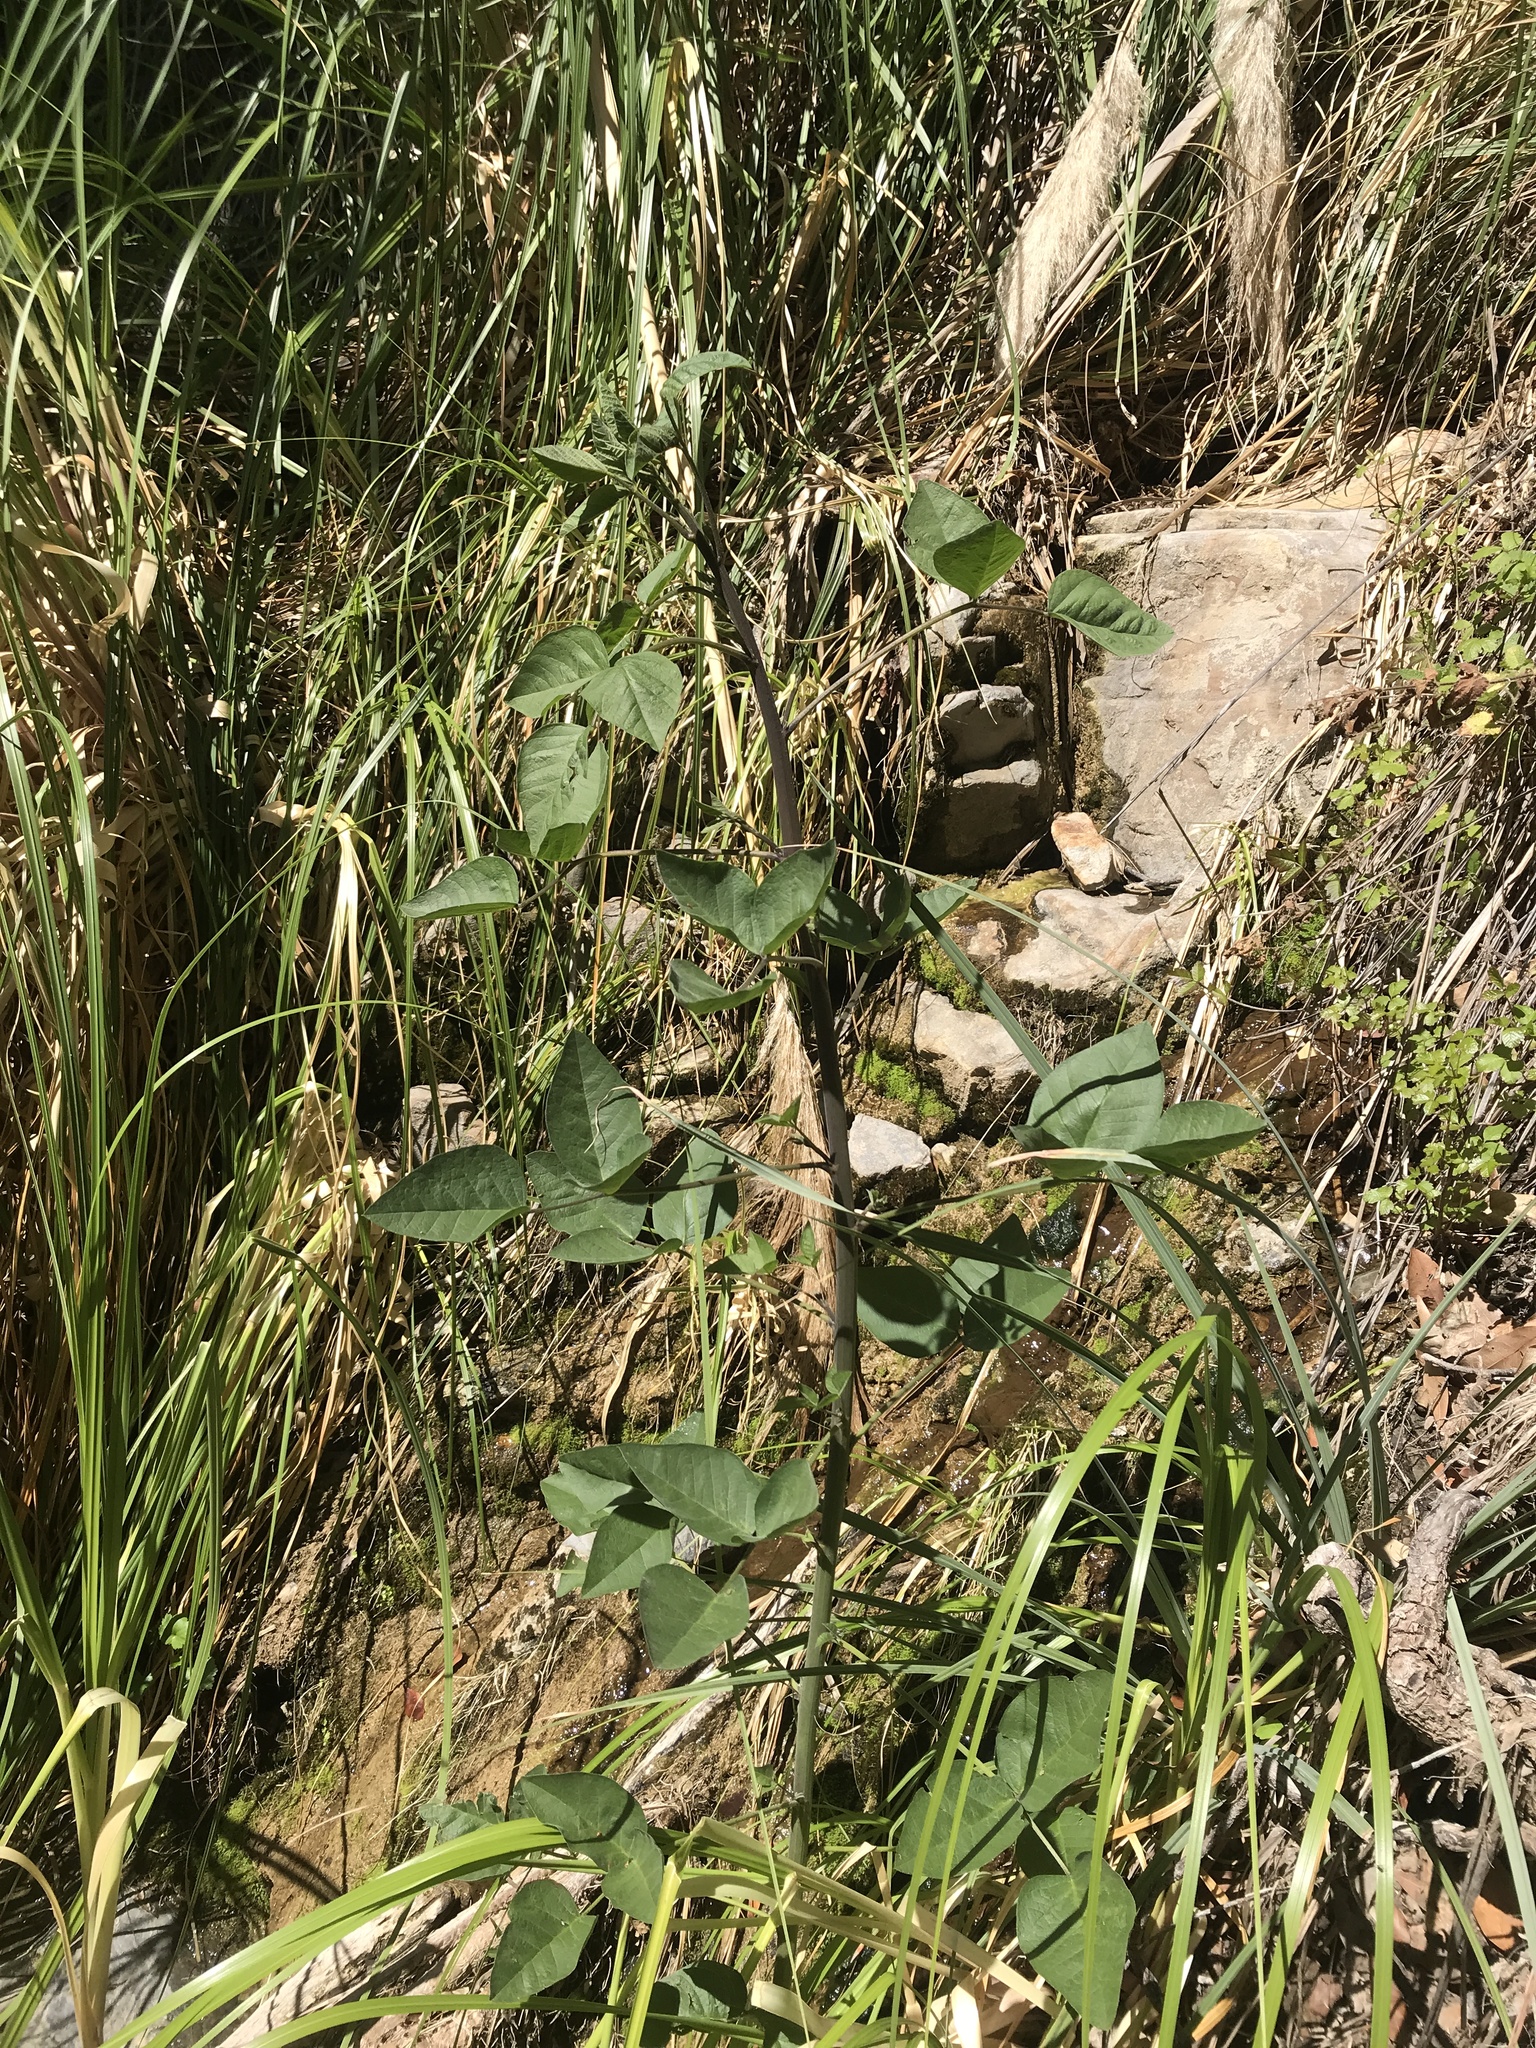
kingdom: Plantae
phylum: Tracheophyta
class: Magnoliopsida
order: Fabales
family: Fabaceae
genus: Hoita
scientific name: Hoita macrostachya
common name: Leatherroot
